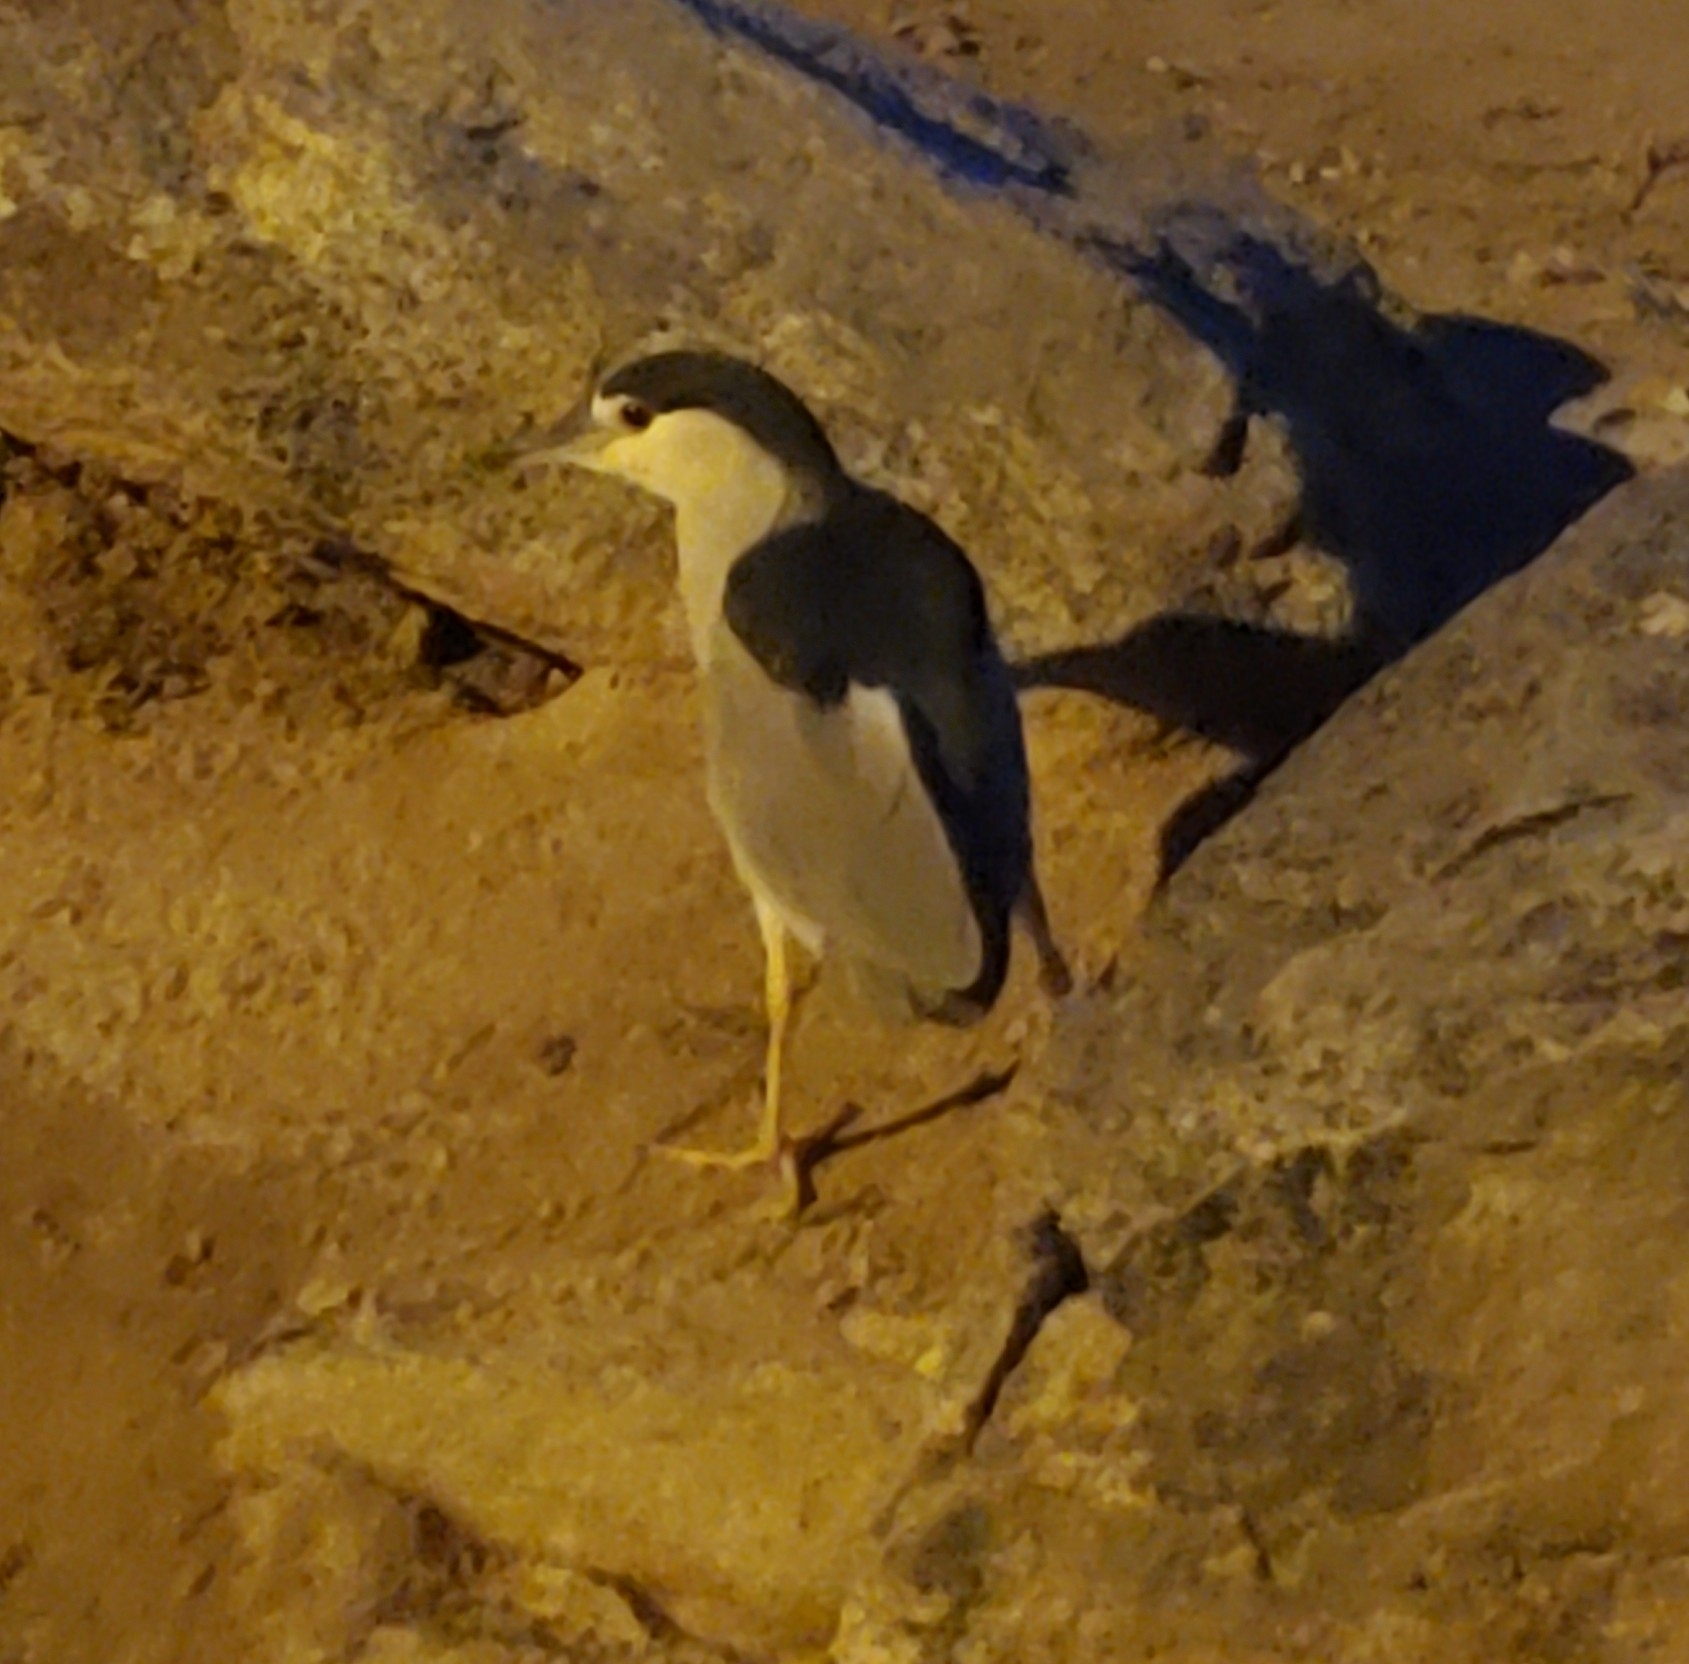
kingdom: Animalia
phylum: Chordata
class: Aves
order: Pelecaniformes
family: Ardeidae
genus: Nycticorax
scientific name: Nycticorax nycticorax
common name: Black-crowned night heron
